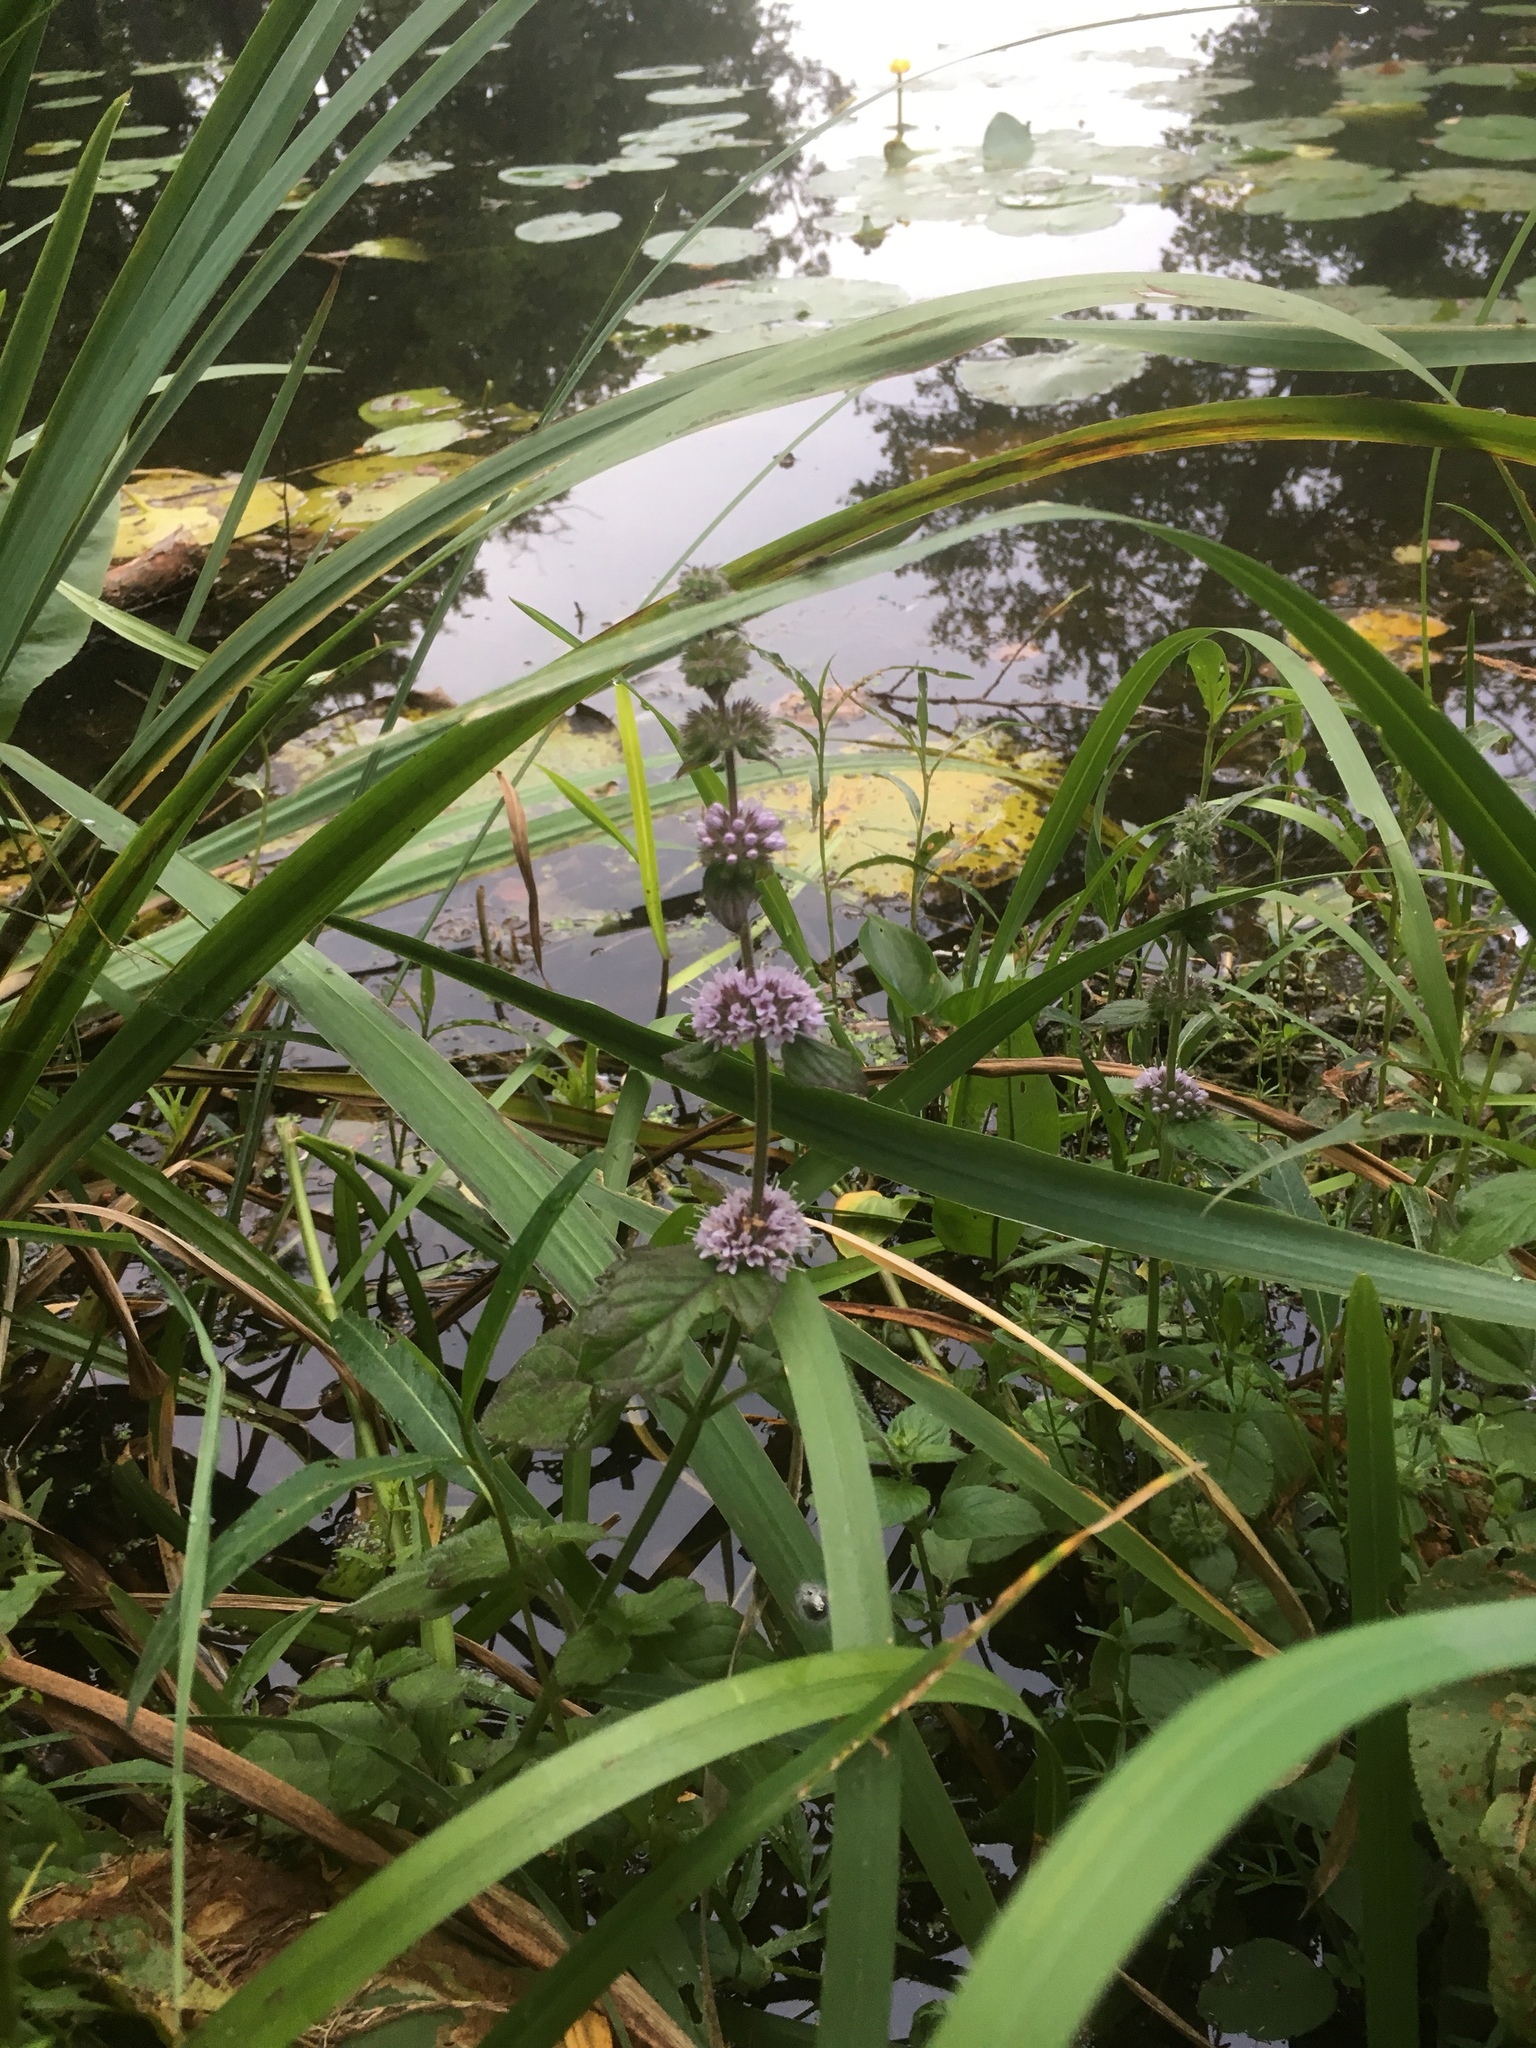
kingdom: Plantae
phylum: Tracheophyta
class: Magnoliopsida
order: Lamiales
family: Lamiaceae
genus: Mentha
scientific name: Mentha aquatica
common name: Water mint
